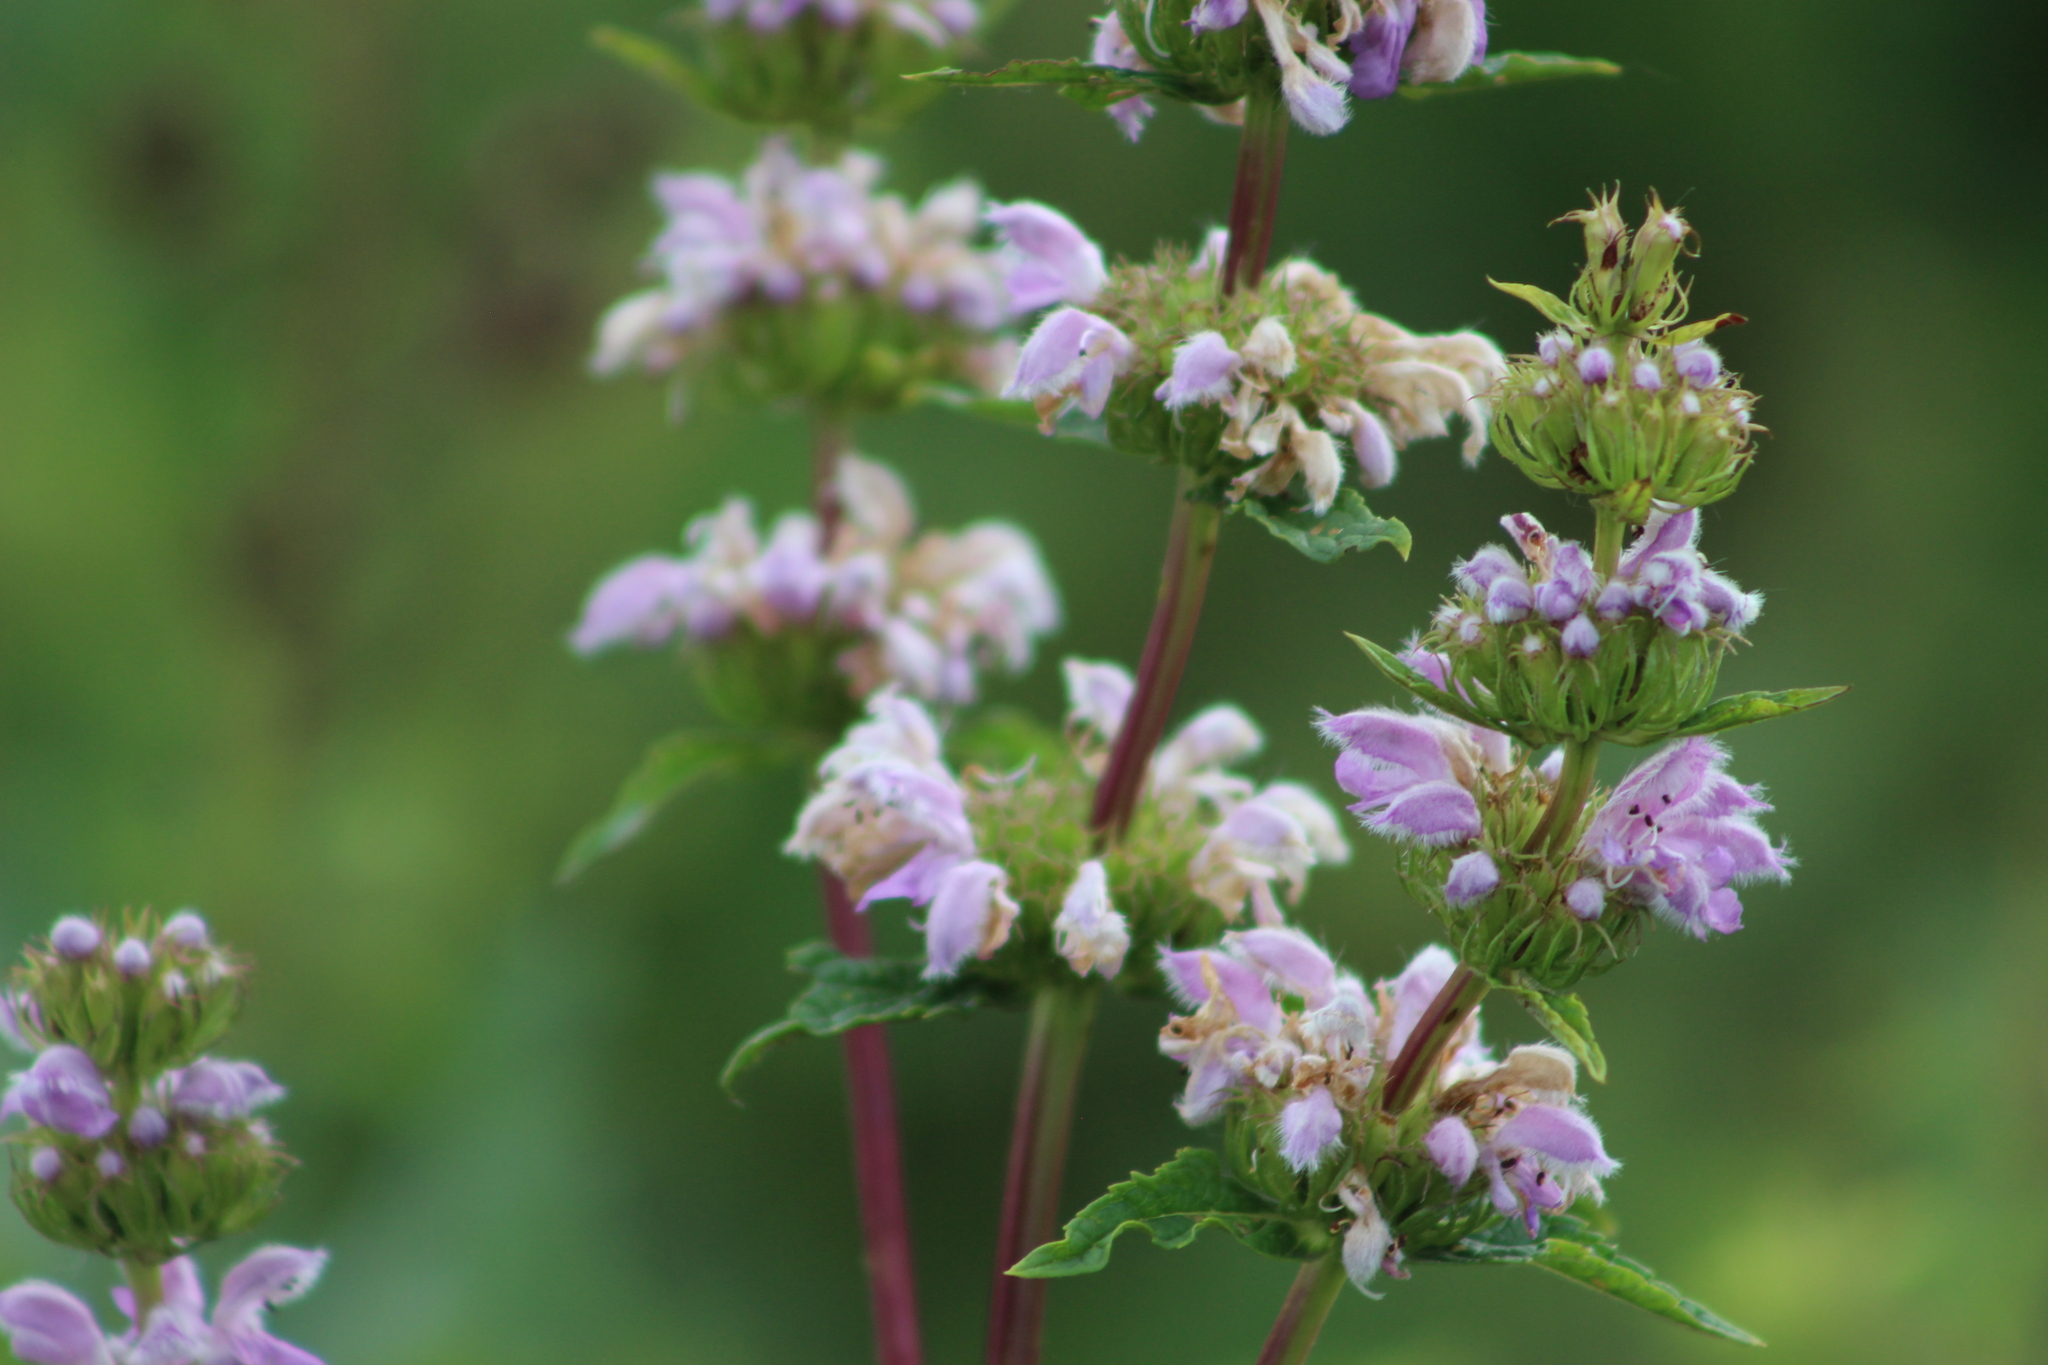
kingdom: Plantae
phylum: Tracheophyta
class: Magnoliopsida
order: Lamiales
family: Lamiaceae
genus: Phlomoides
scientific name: Phlomoides tuberosa
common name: Tuberous jerusalem sage
